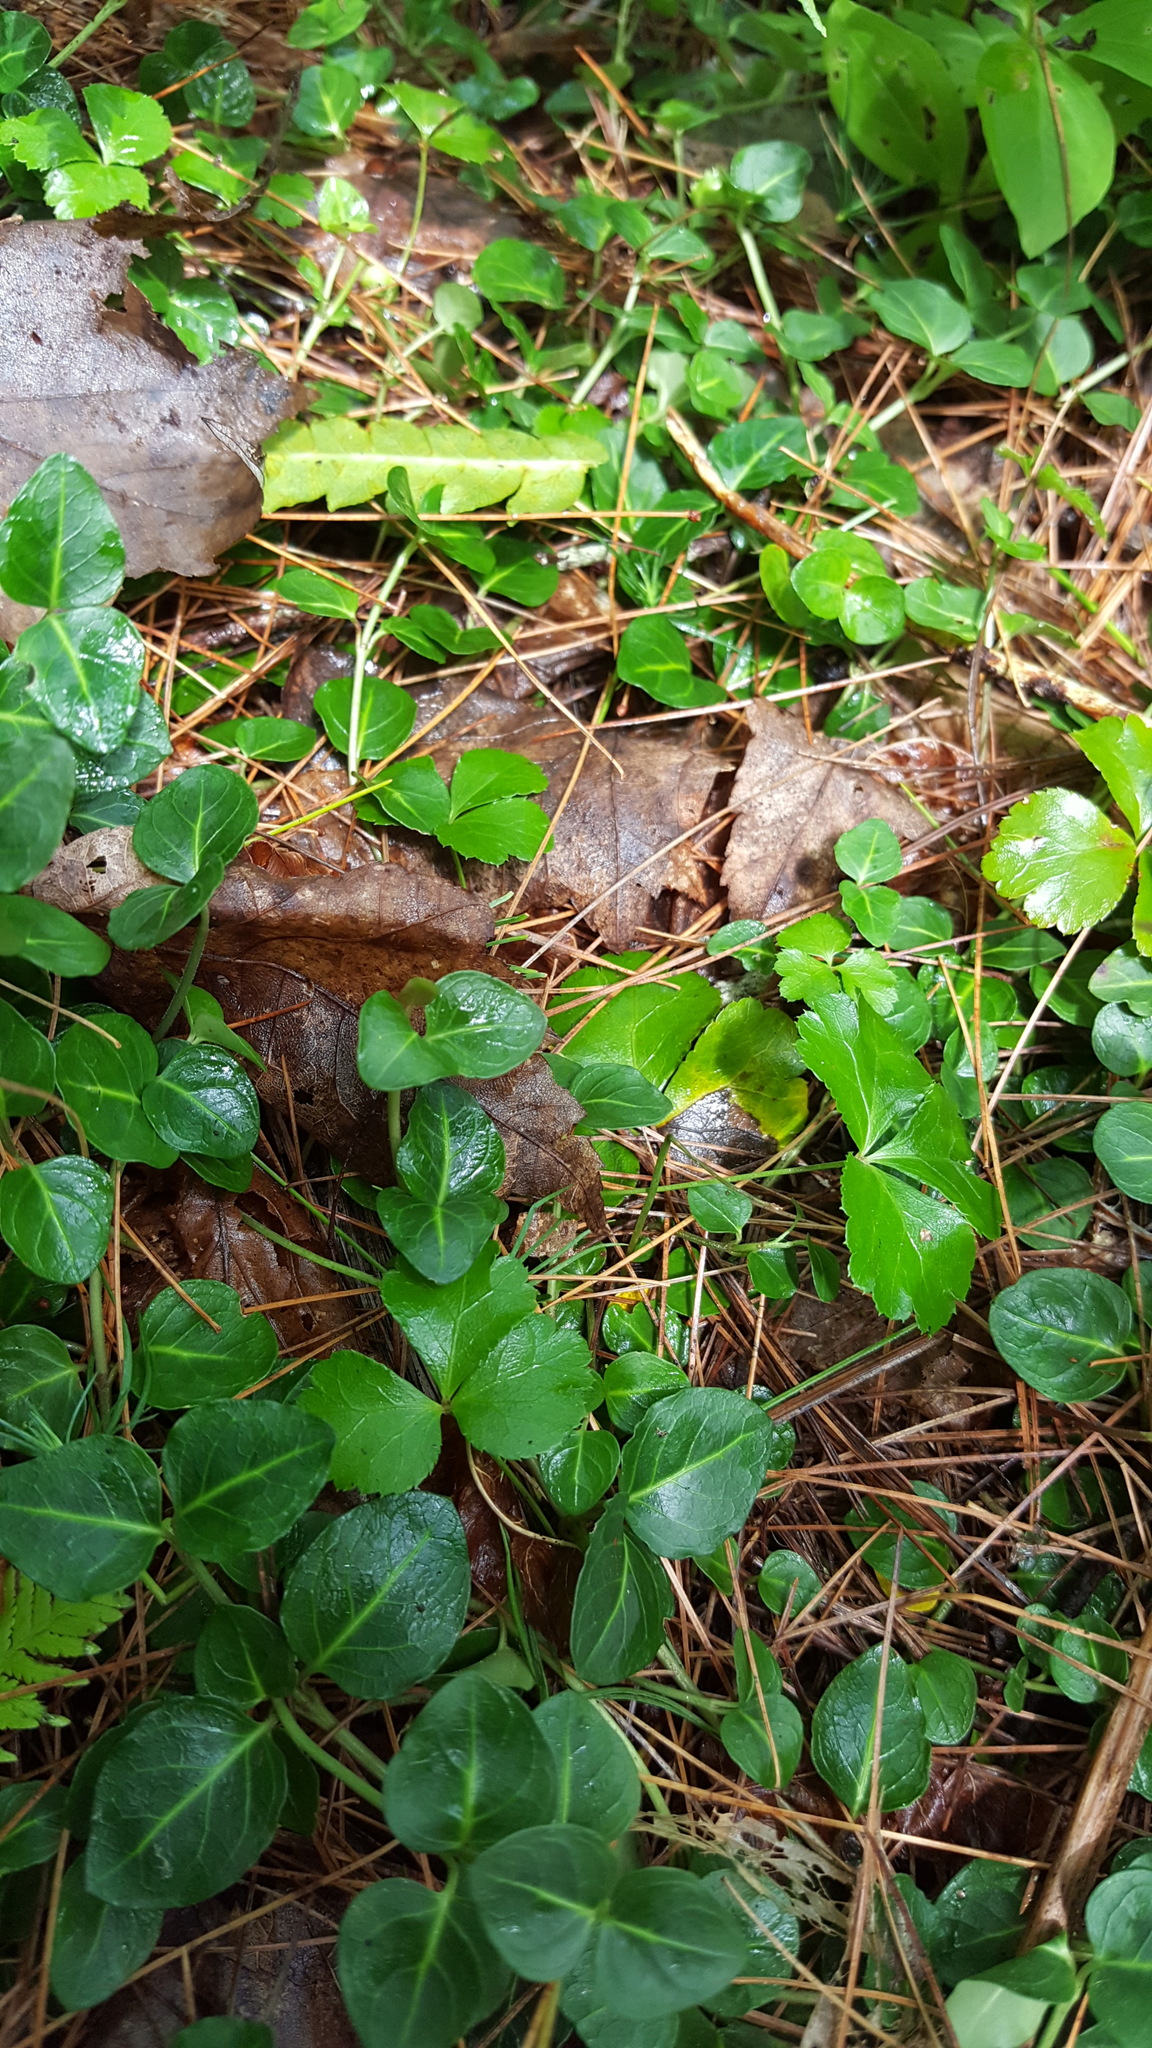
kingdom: Plantae
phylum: Tracheophyta
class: Magnoliopsida
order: Gentianales
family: Rubiaceae
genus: Mitchella
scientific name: Mitchella repens
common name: Partridge-berry
